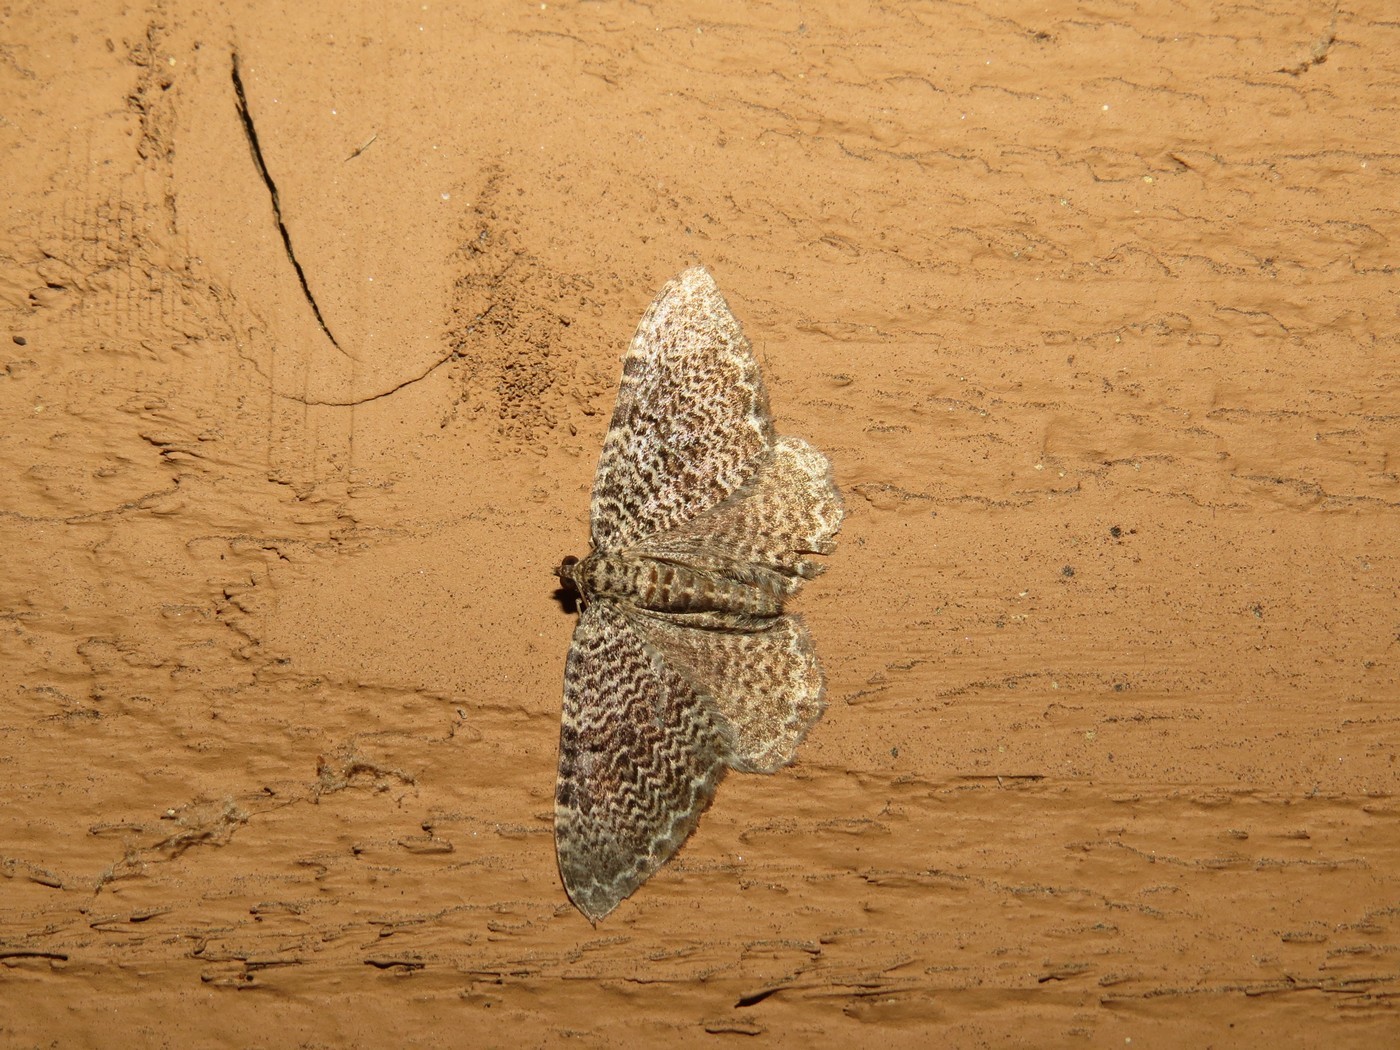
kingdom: Animalia
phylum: Arthropoda
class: Insecta
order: Lepidoptera
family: Geometridae
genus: Rheumaptera
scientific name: Rheumaptera prunivorata
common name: Cherry scallop shell moth
